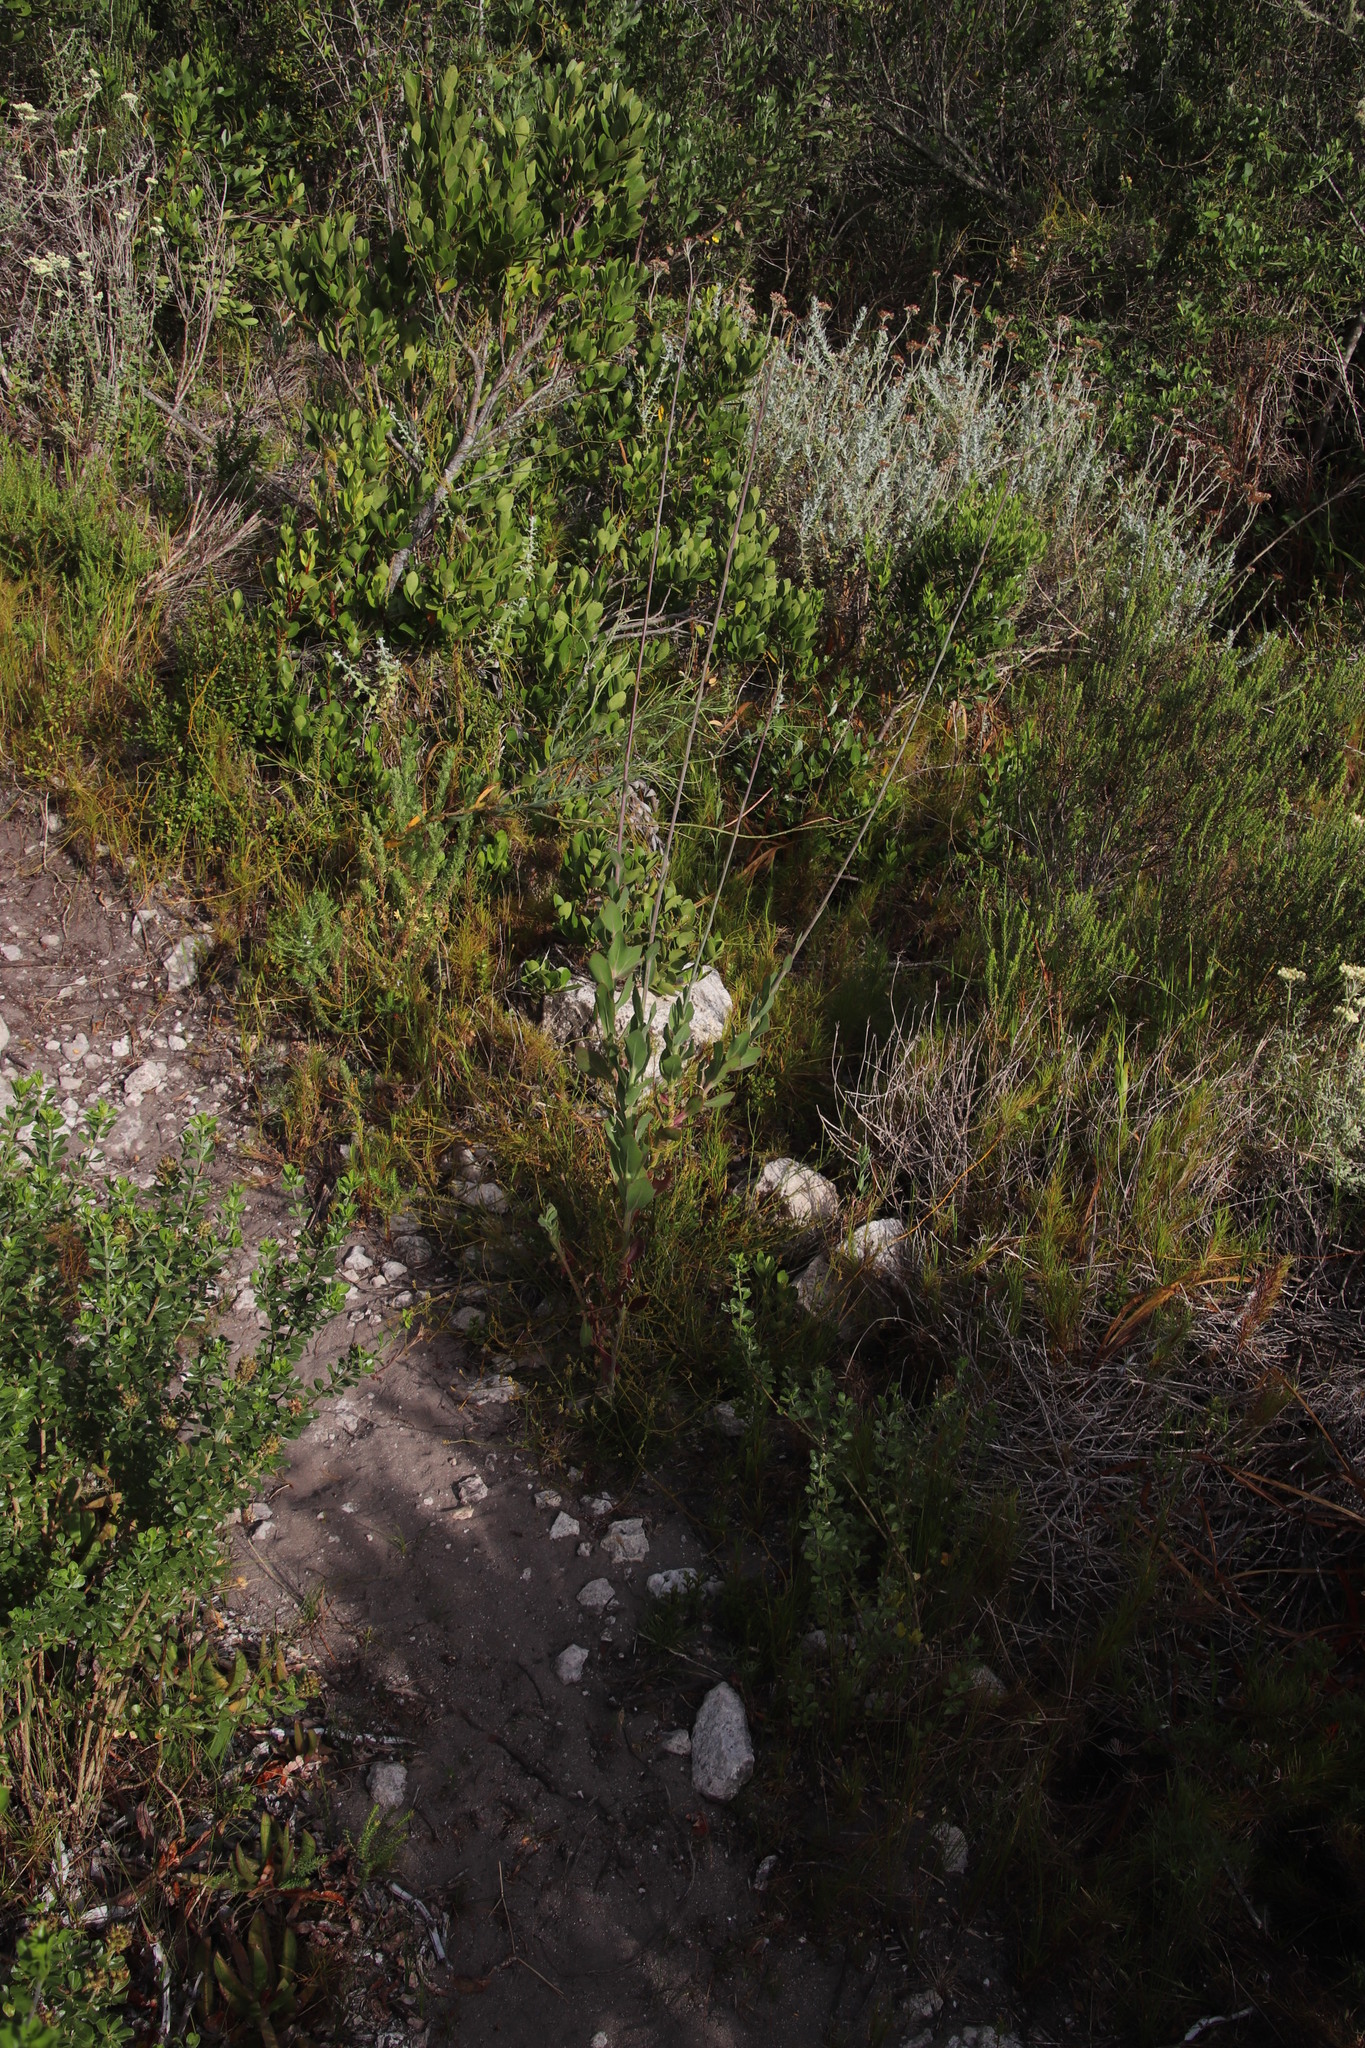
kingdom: Plantae
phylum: Tracheophyta
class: Magnoliopsida
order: Asterales
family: Asteraceae
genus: Othonna
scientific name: Othonna quinquedentata
